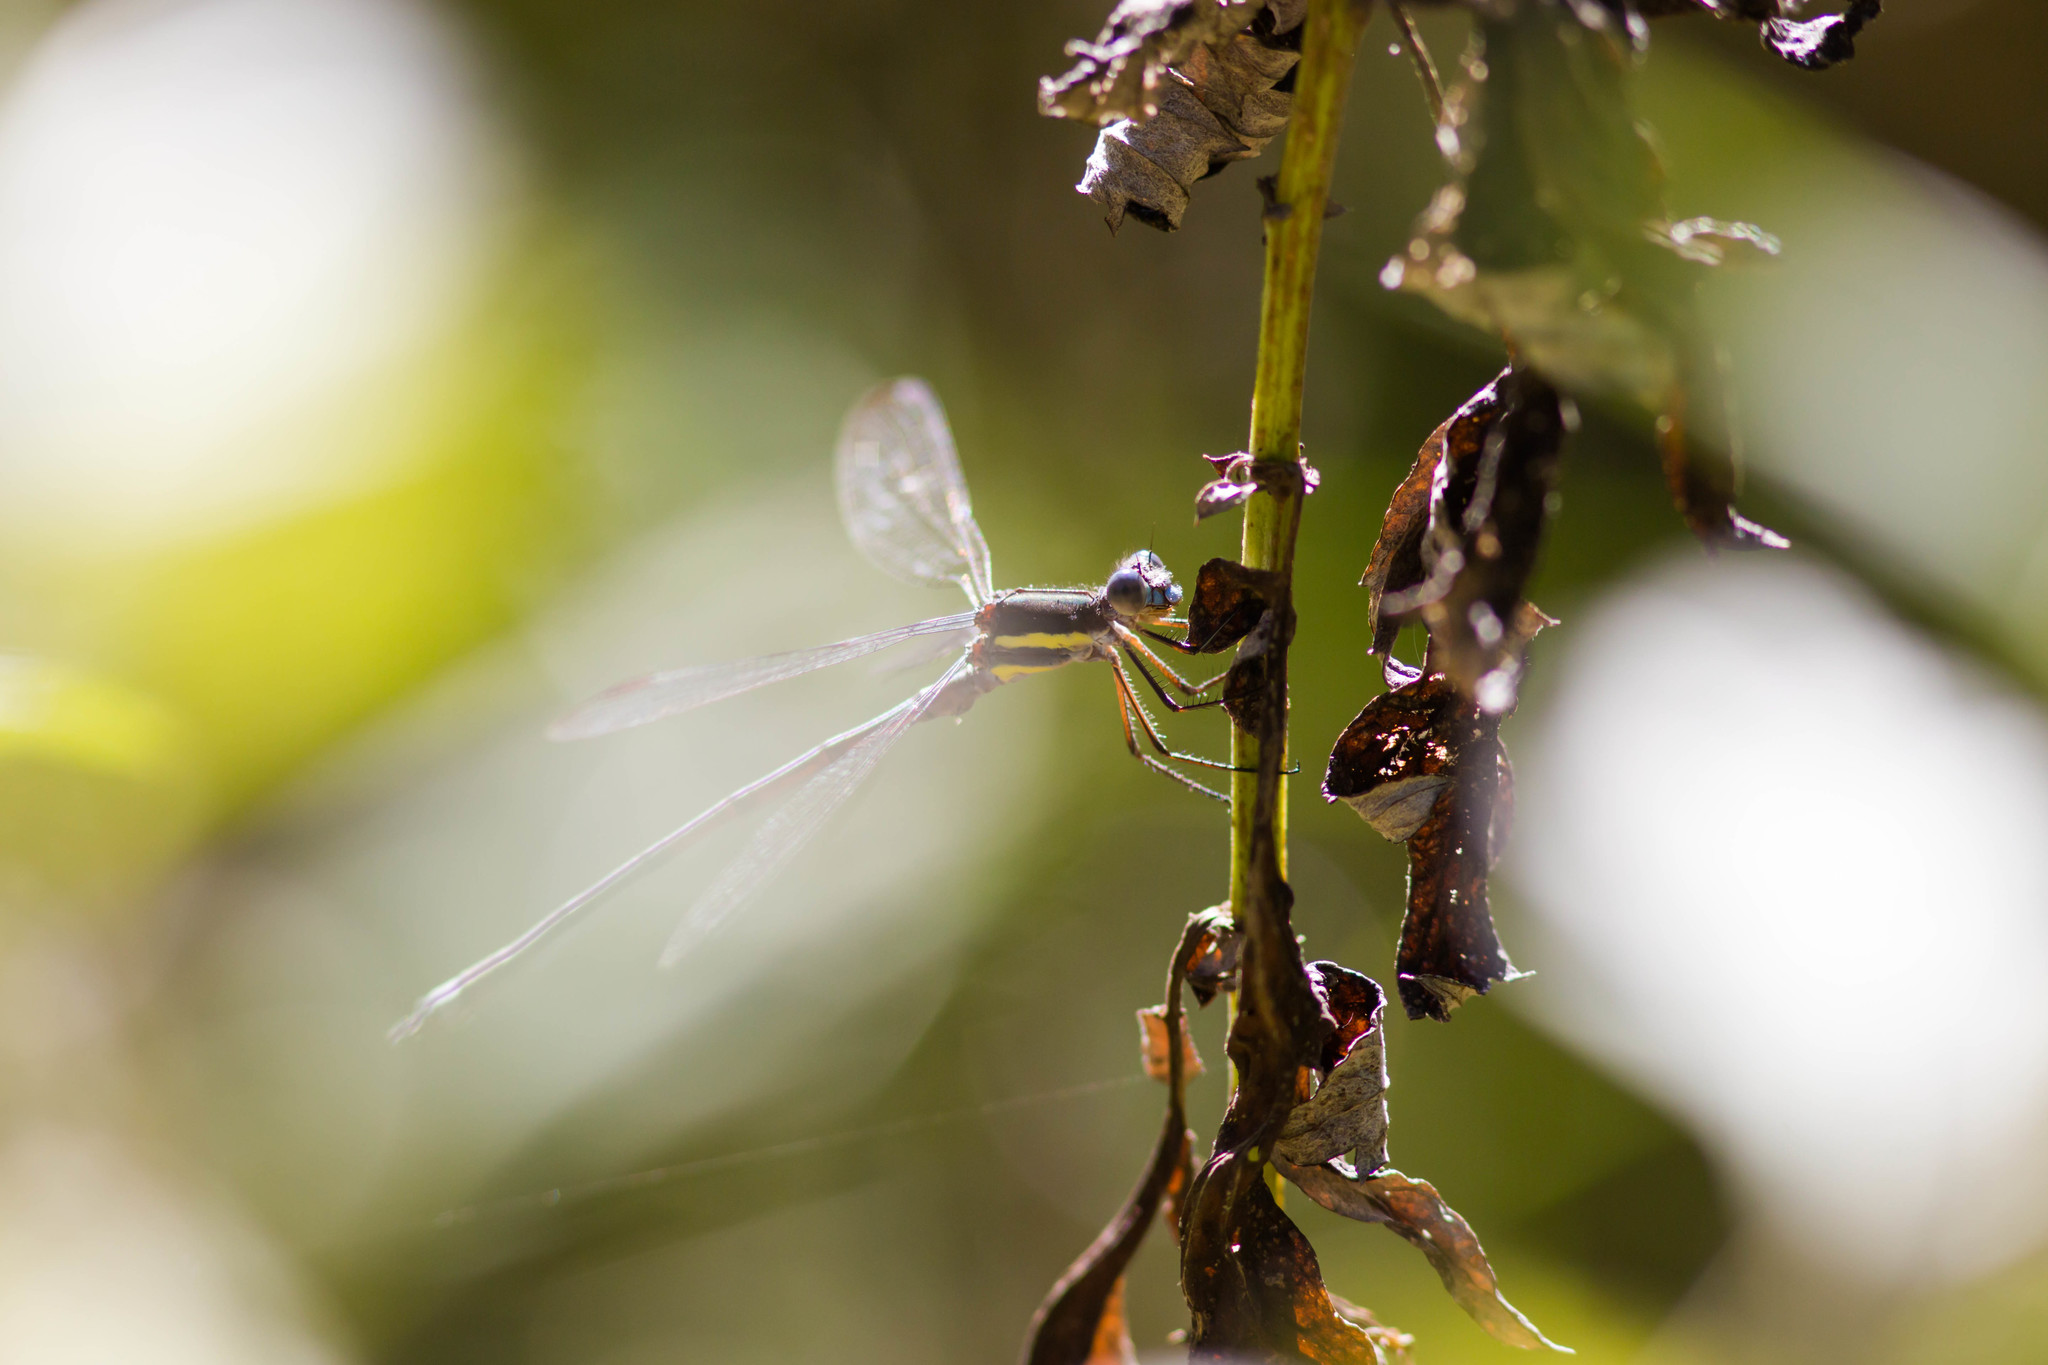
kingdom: Animalia
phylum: Arthropoda
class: Insecta
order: Odonata
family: Lestidae
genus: Archilestes
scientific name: Archilestes grandis
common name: Great spreadwing
